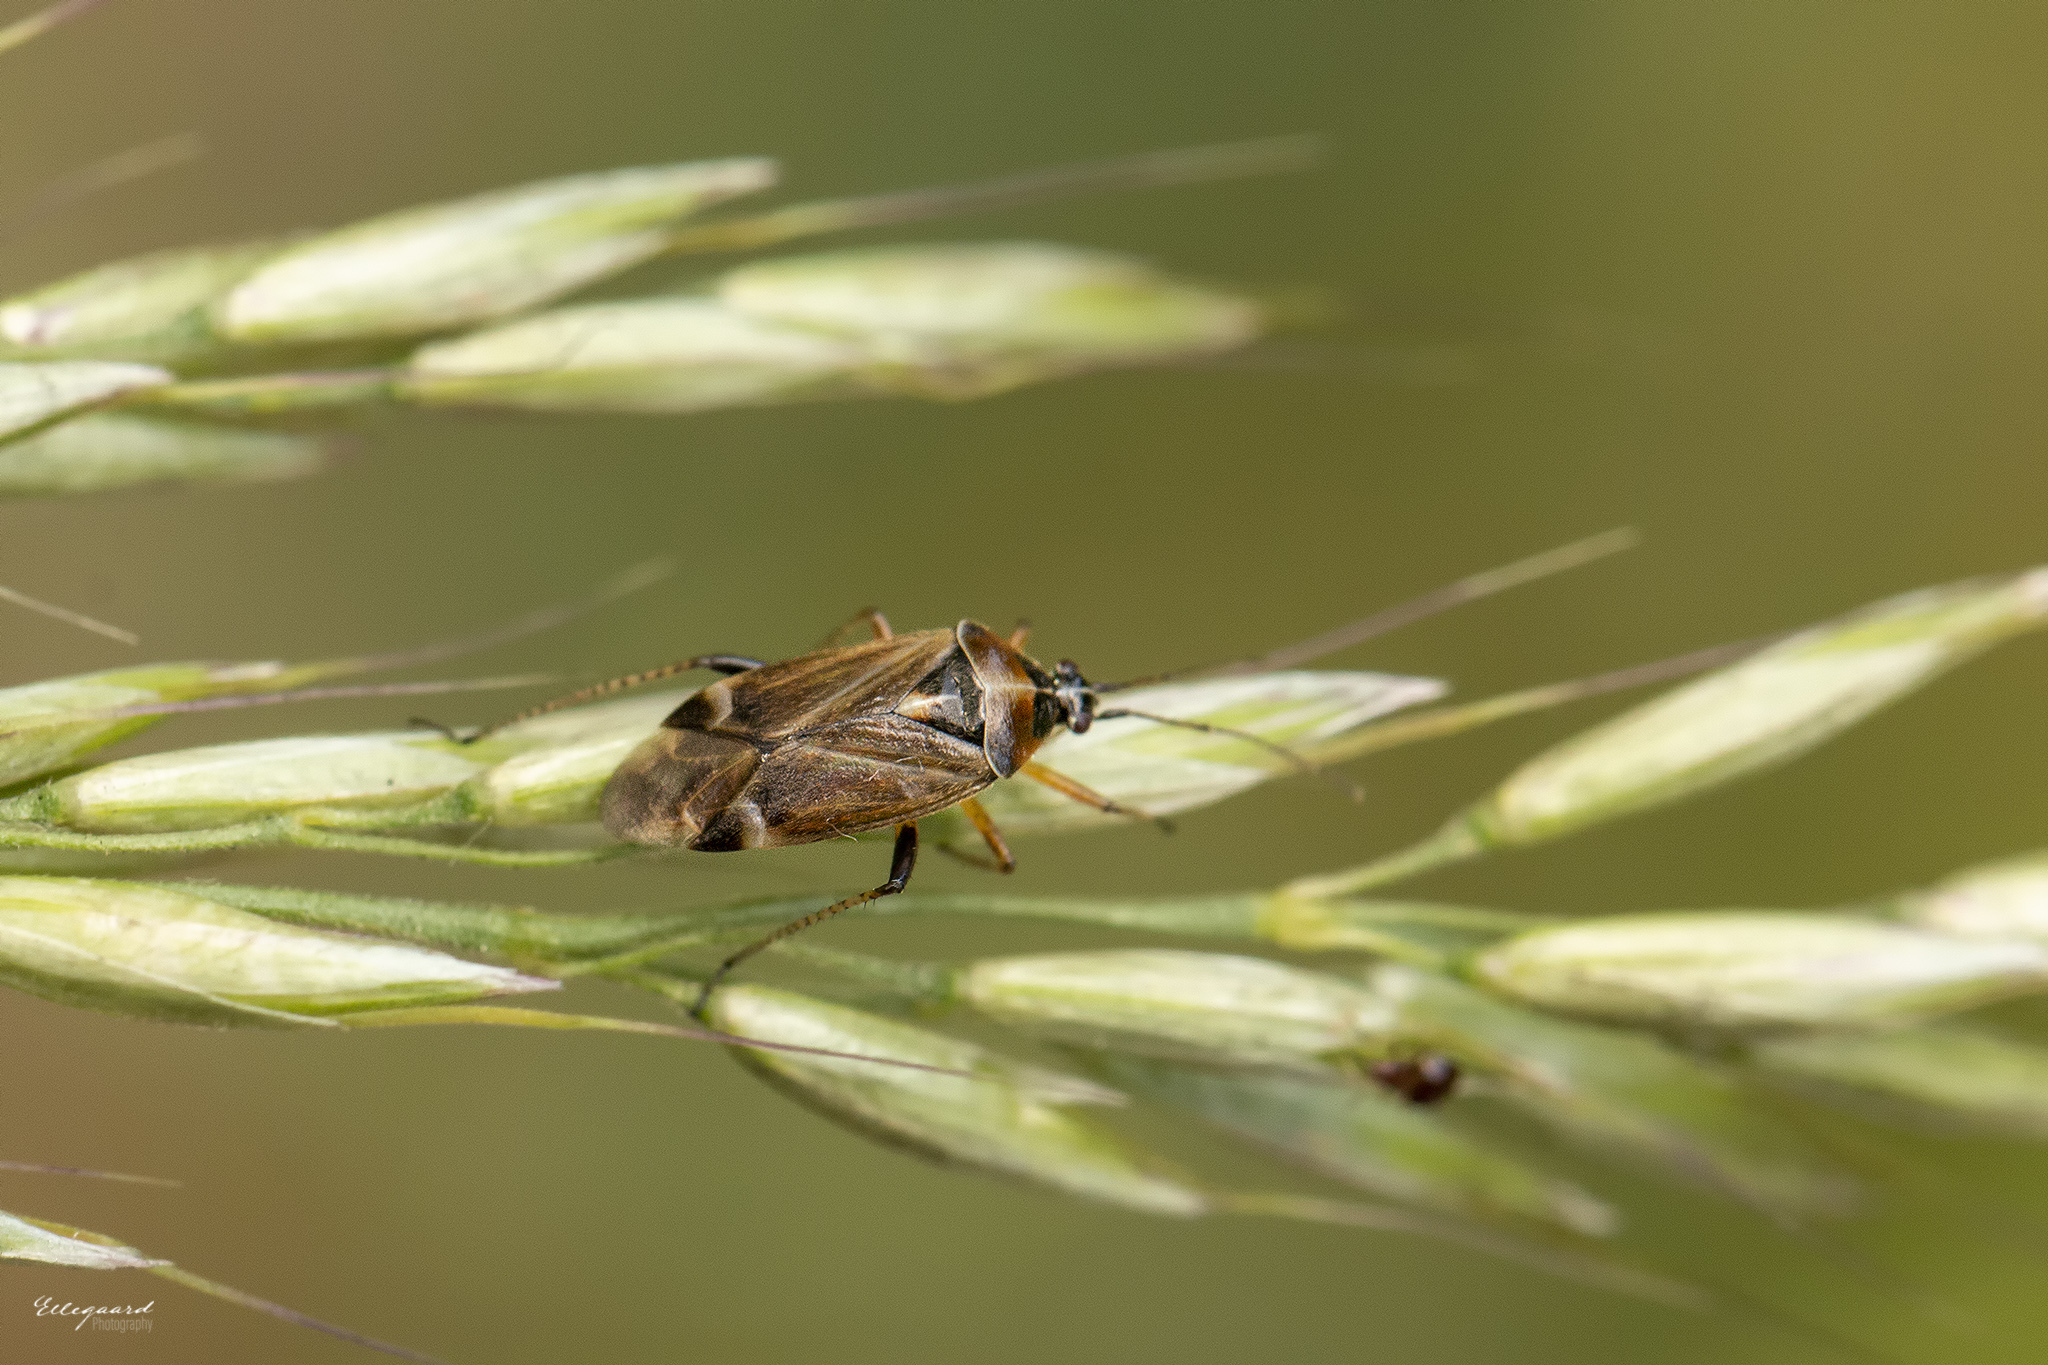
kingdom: Animalia
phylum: Arthropoda
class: Insecta
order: Hemiptera
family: Miridae
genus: Harpocera
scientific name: Harpocera thoracica
